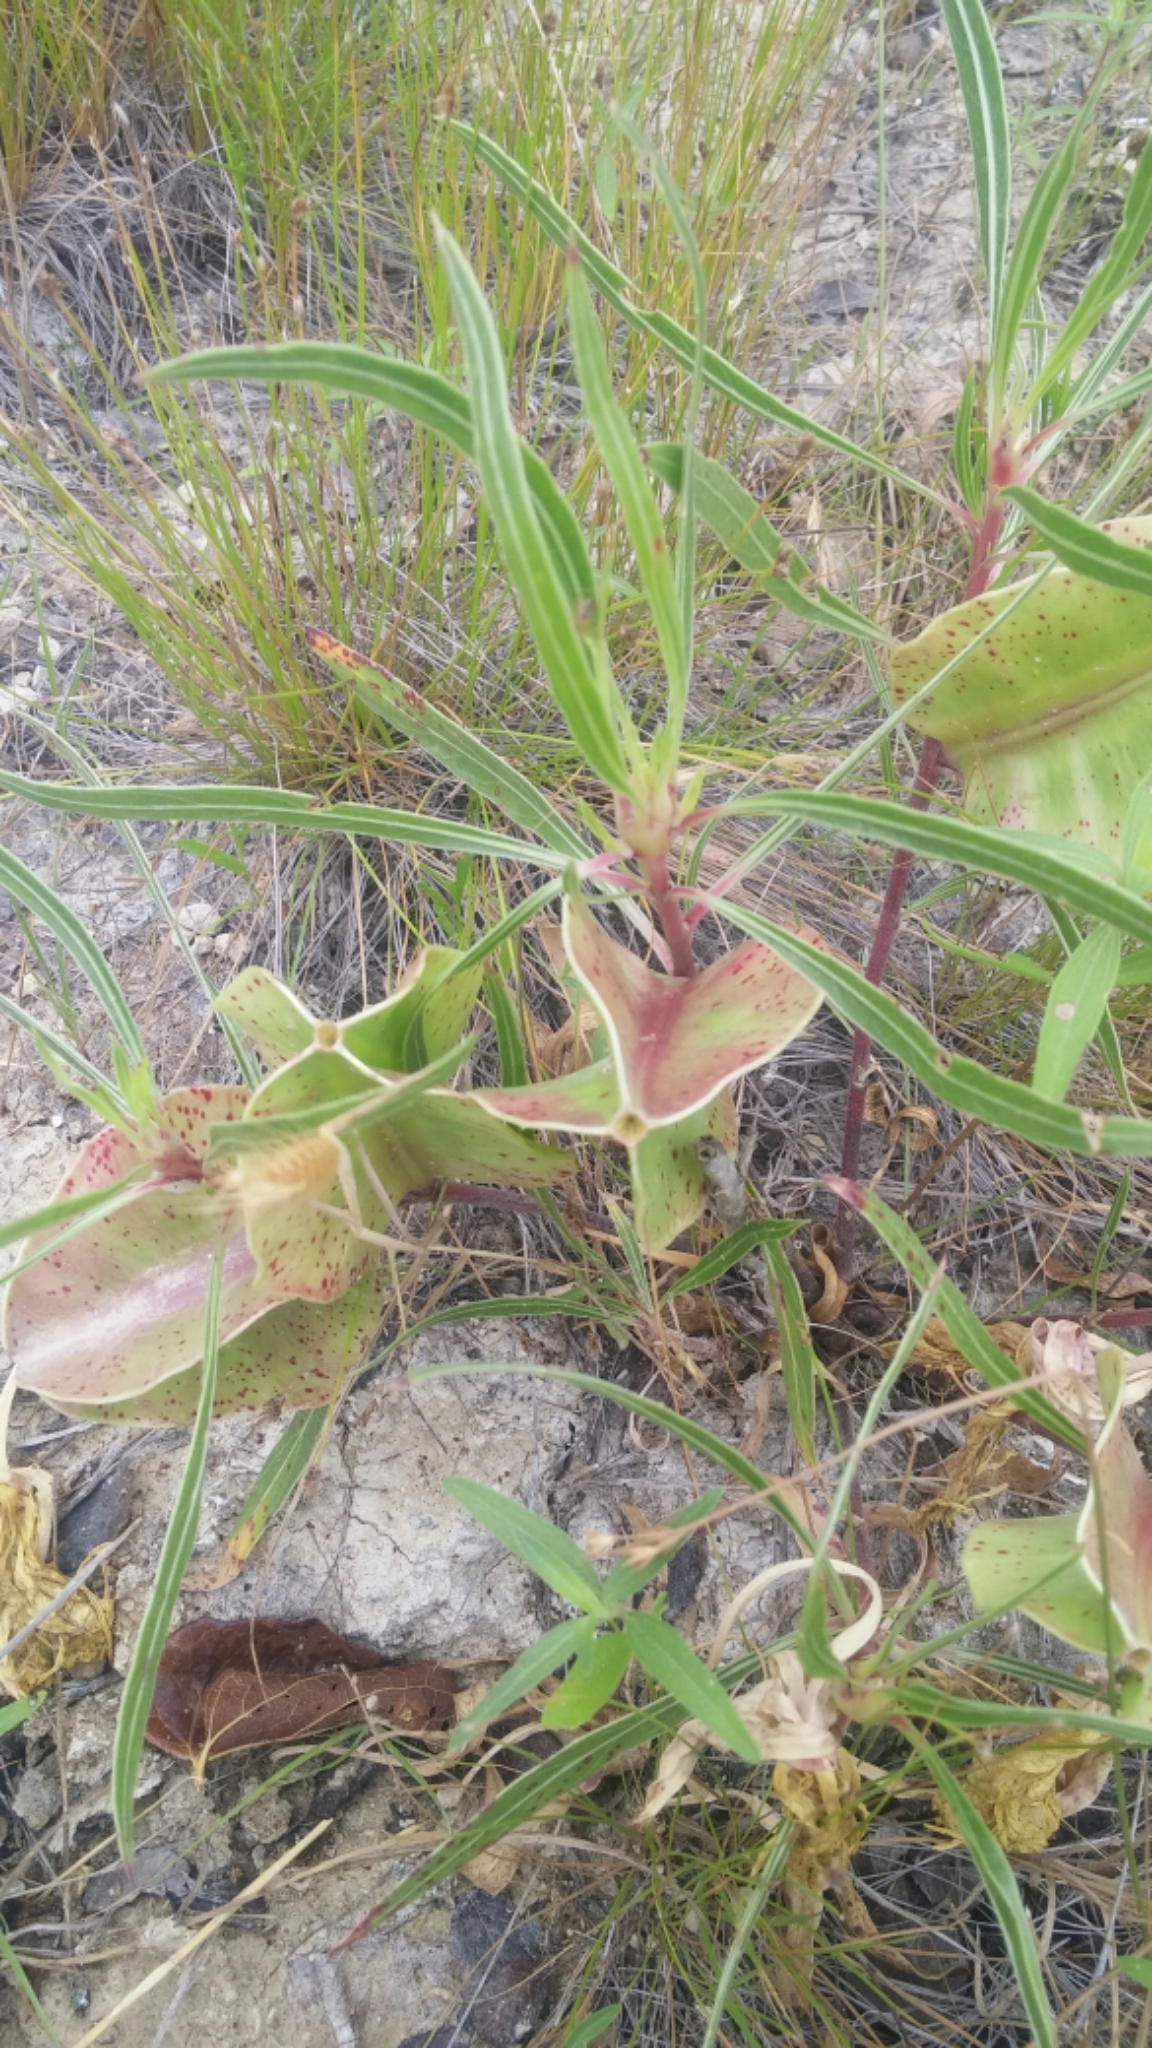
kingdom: Plantae
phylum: Tracheophyta
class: Magnoliopsida
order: Myrtales
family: Onagraceae
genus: Oenothera
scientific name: Oenothera macrocarpa
